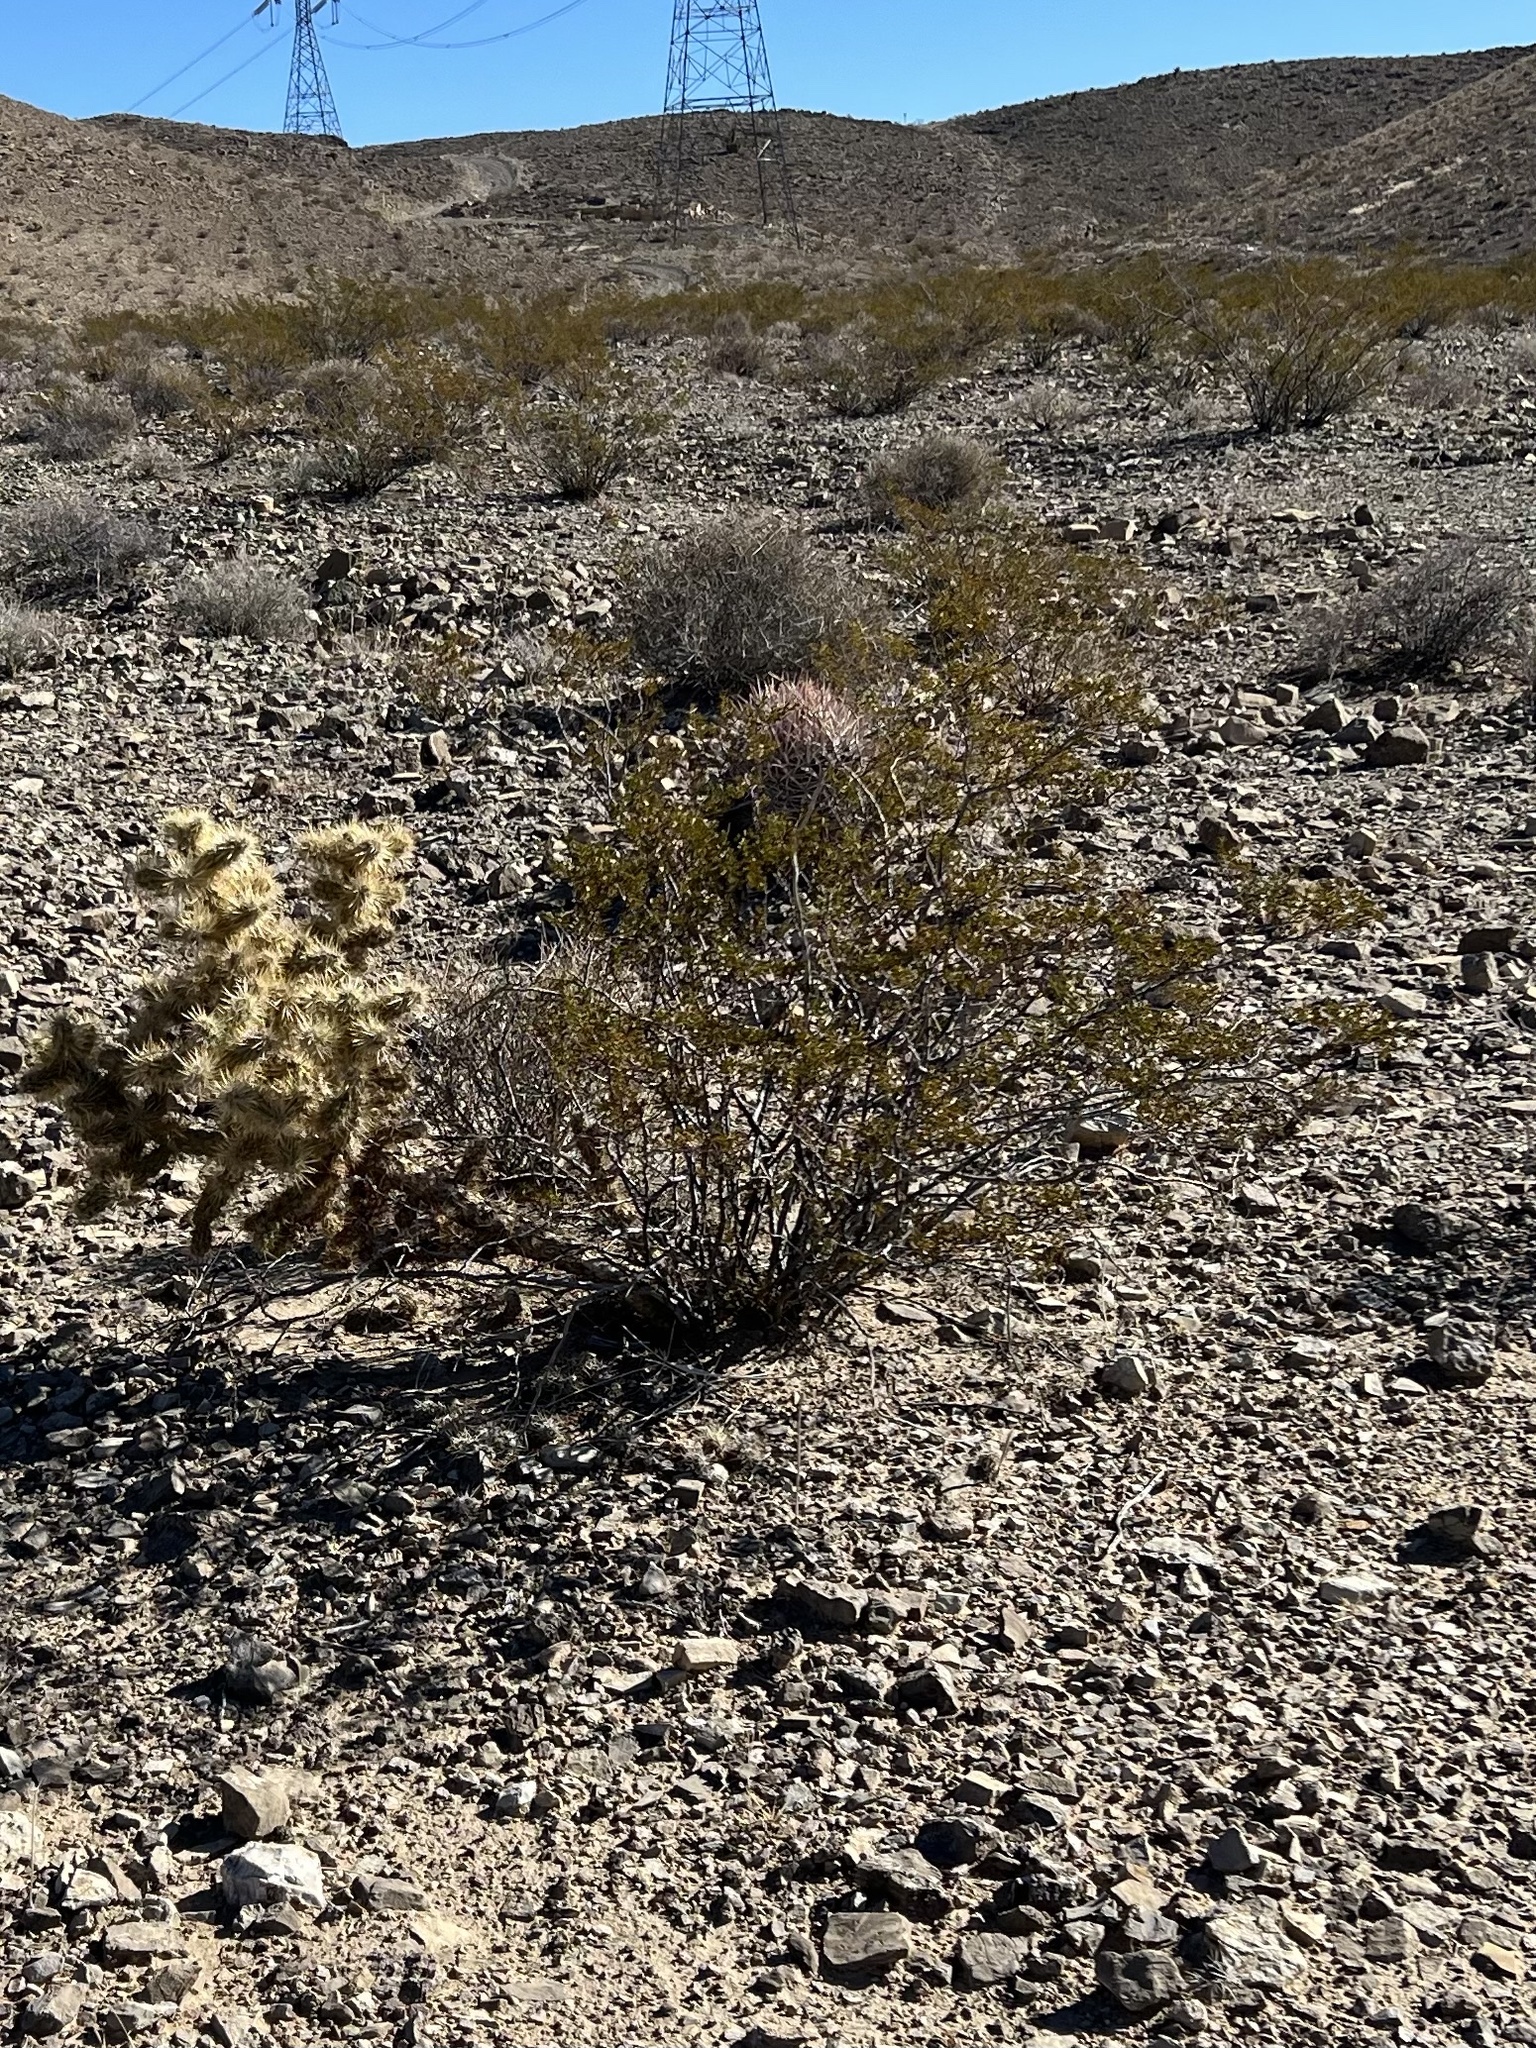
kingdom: Plantae
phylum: Tracheophyta
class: Magnoliopsida
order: Zygophyllales
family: Zygophyllaceae
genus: Larrea
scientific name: Larrea tridentata
